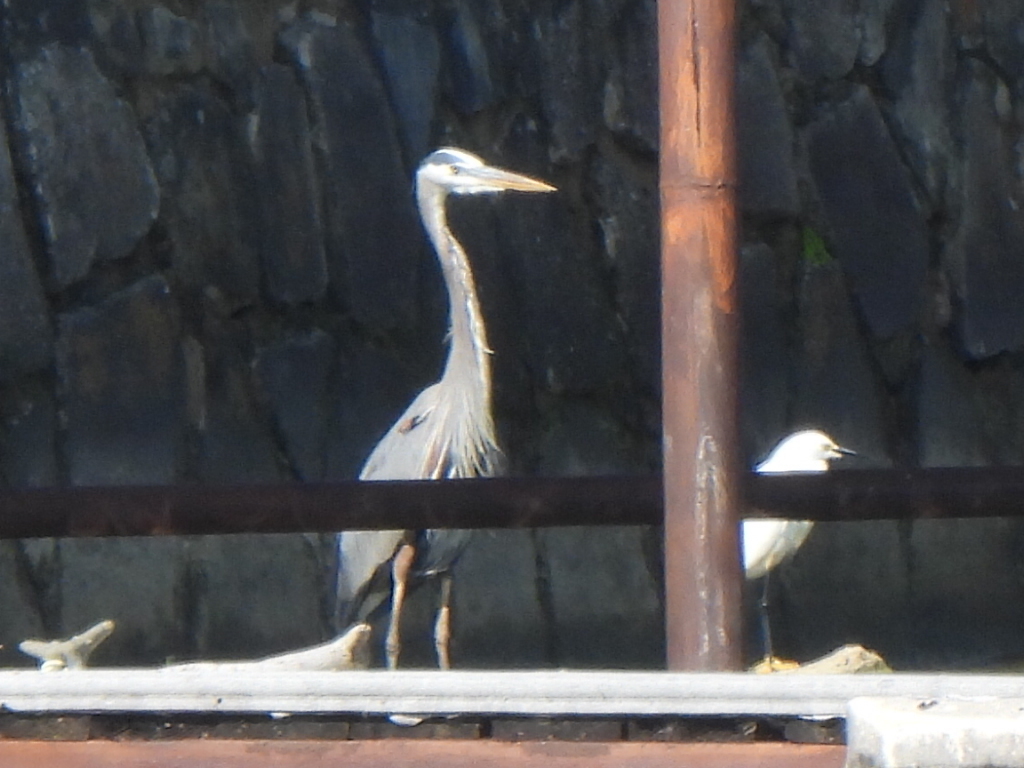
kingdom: Animalia
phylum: Chordata
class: Aves
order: Pelecaniformes
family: Ardeidae
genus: Ardea
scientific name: Ardea herodias
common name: Great blue heron
